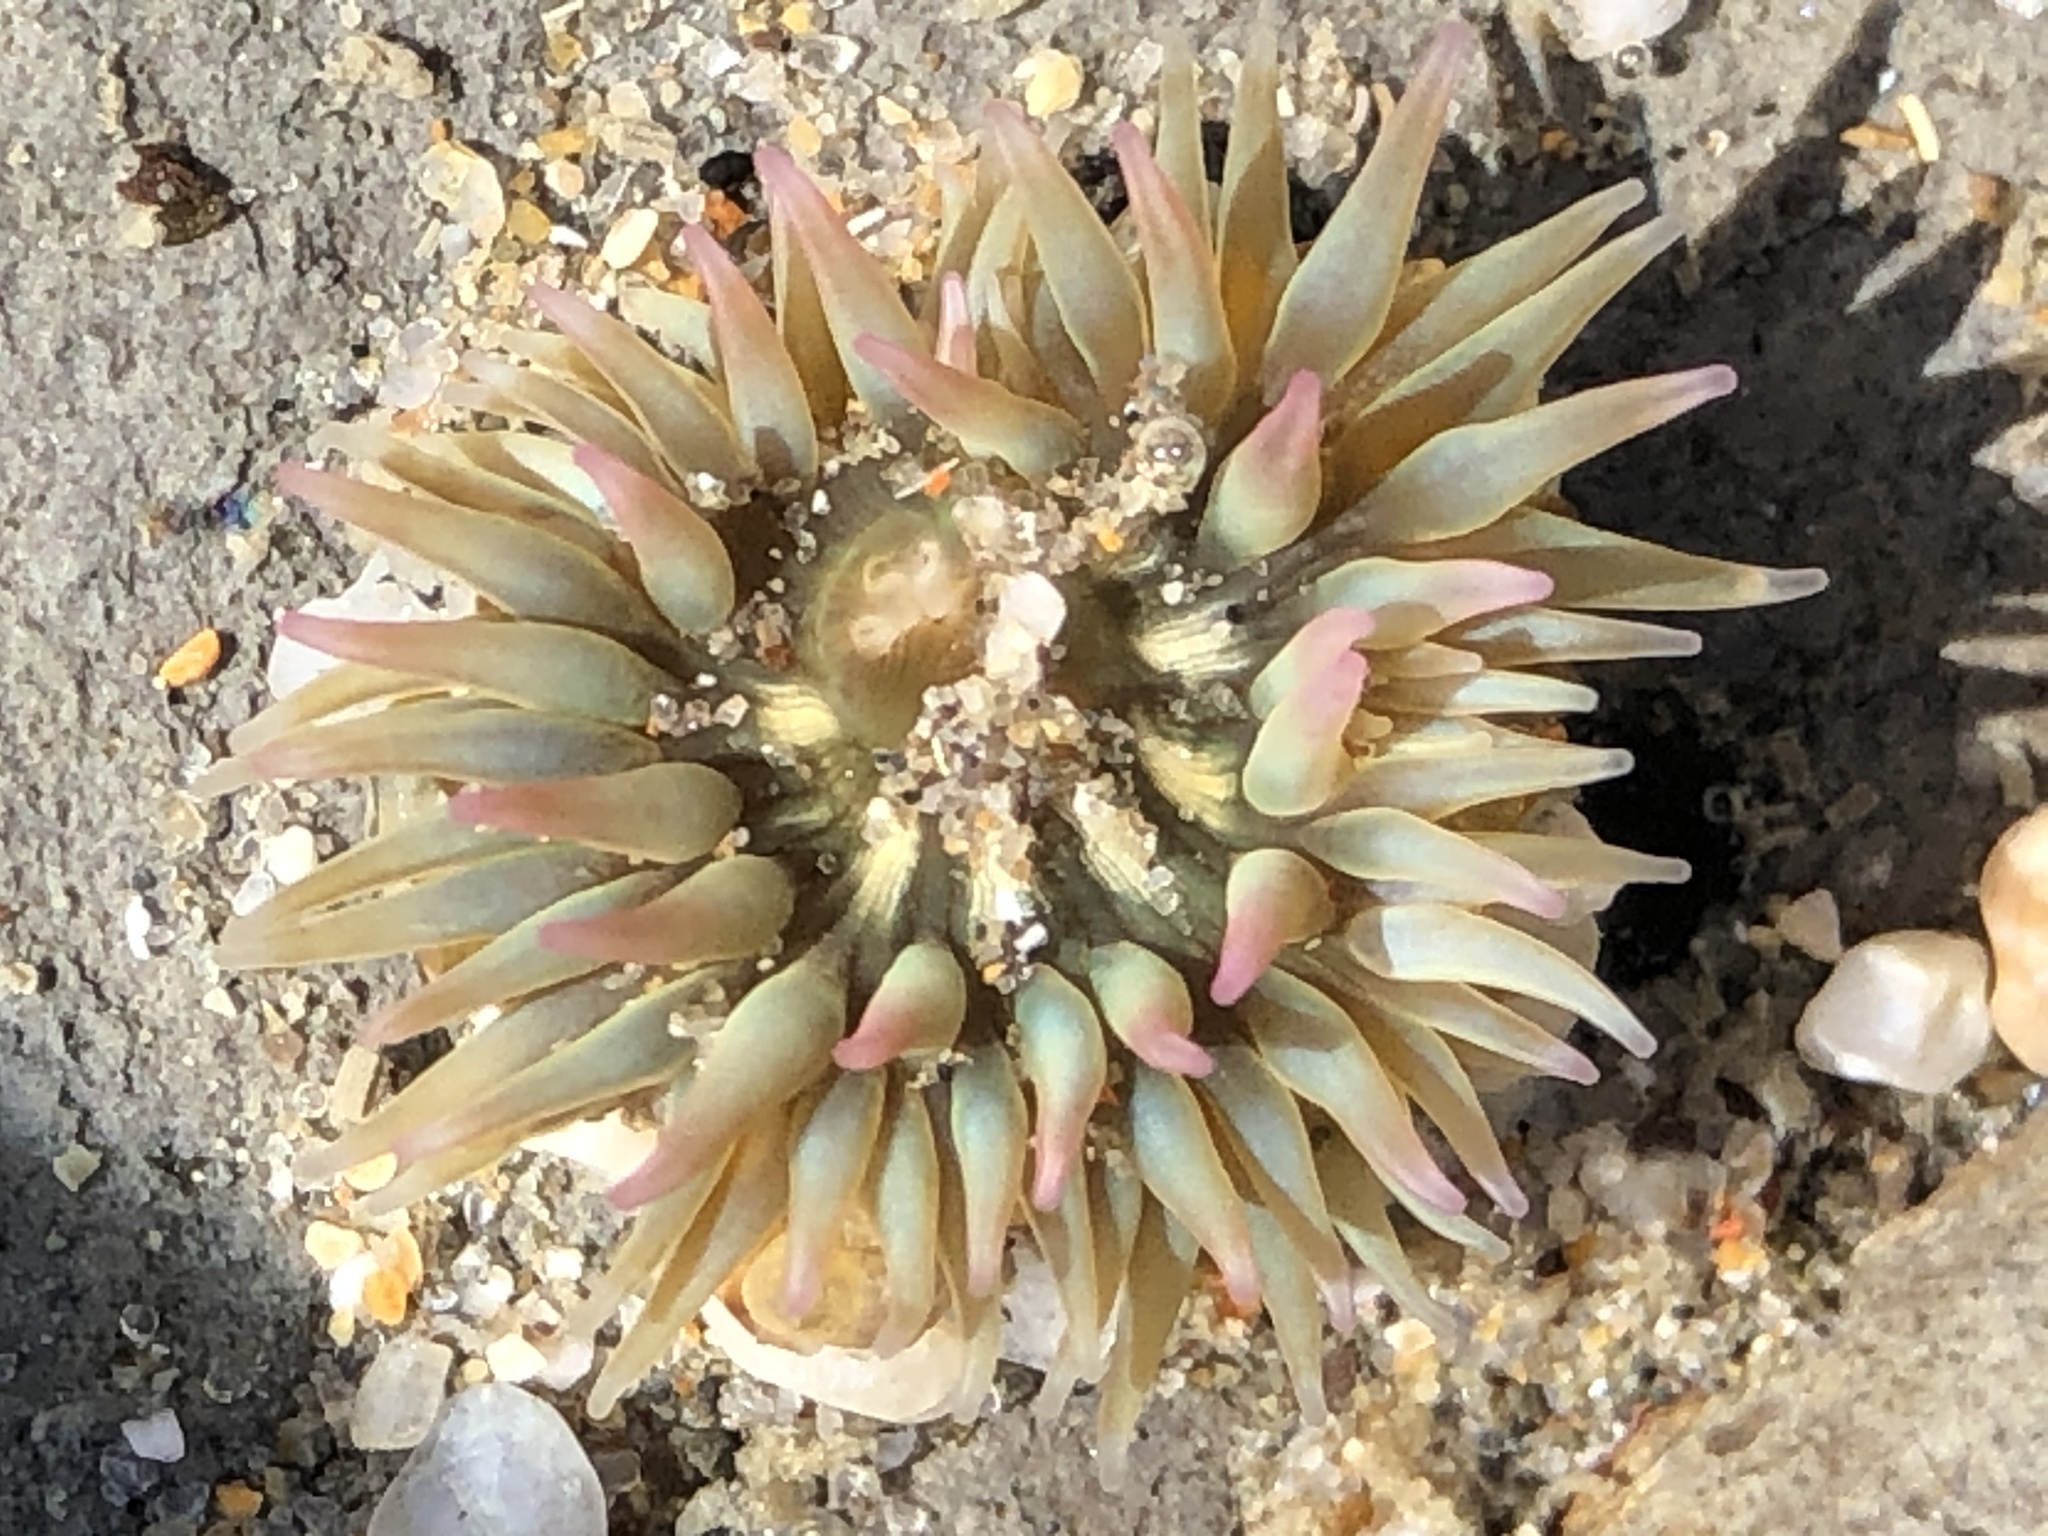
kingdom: Animalia
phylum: Cnidaria
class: Anthozoa
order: Actiniaria
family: Actiniidae
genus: Anthopleura
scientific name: Anthopleura elegantissima
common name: Clonal anemone
